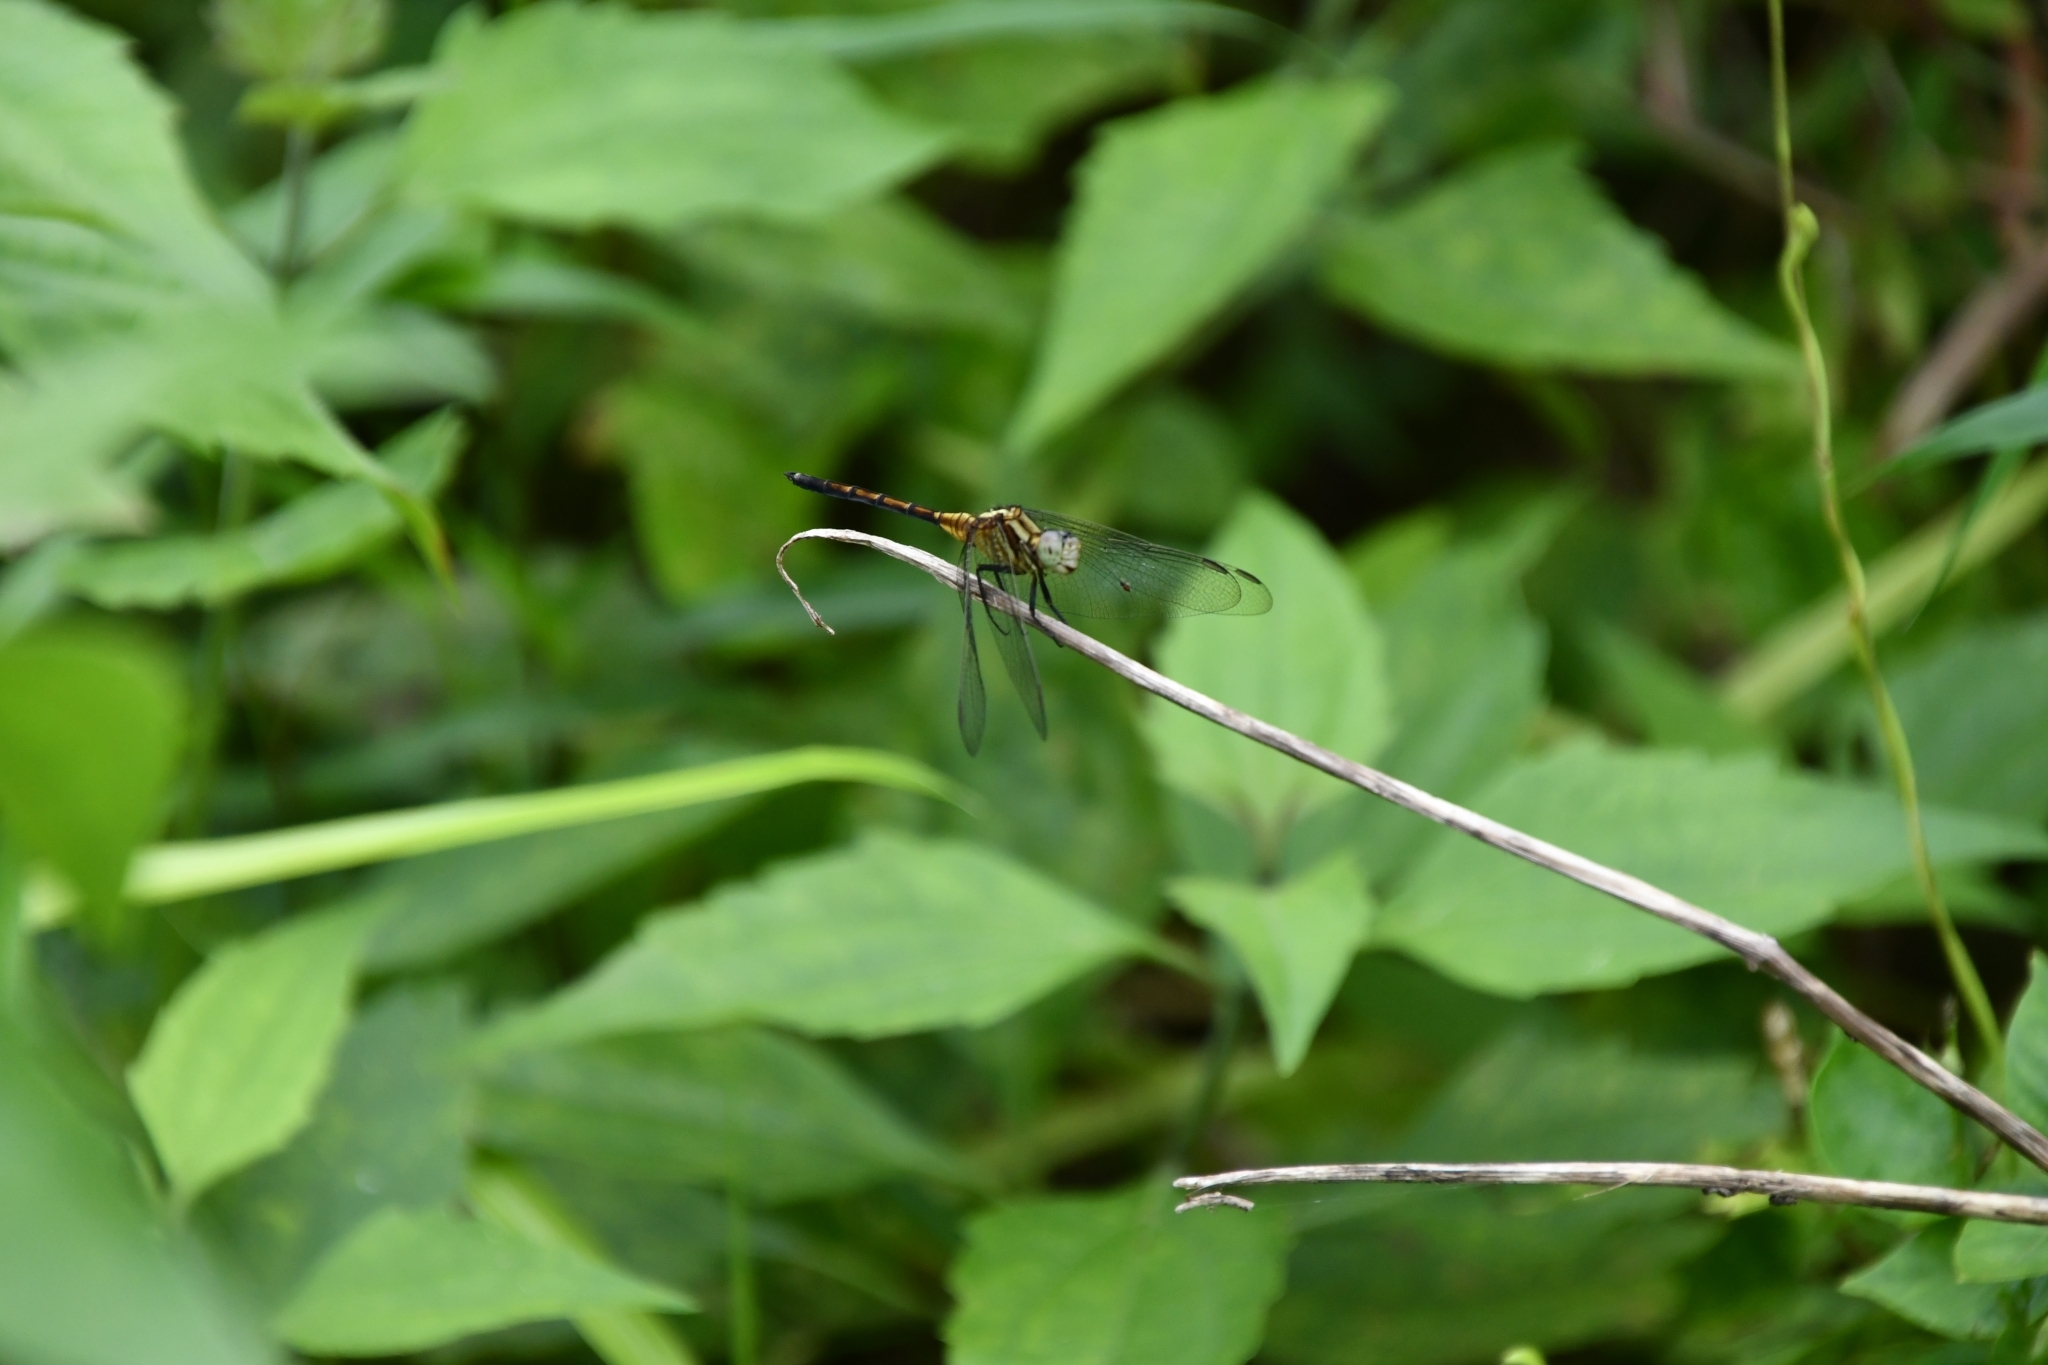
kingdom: Animalia
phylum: Arthropoda
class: Insecta
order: Odonata
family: Libellulidae
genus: Orthetrum
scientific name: Orthetrum luzonicum
